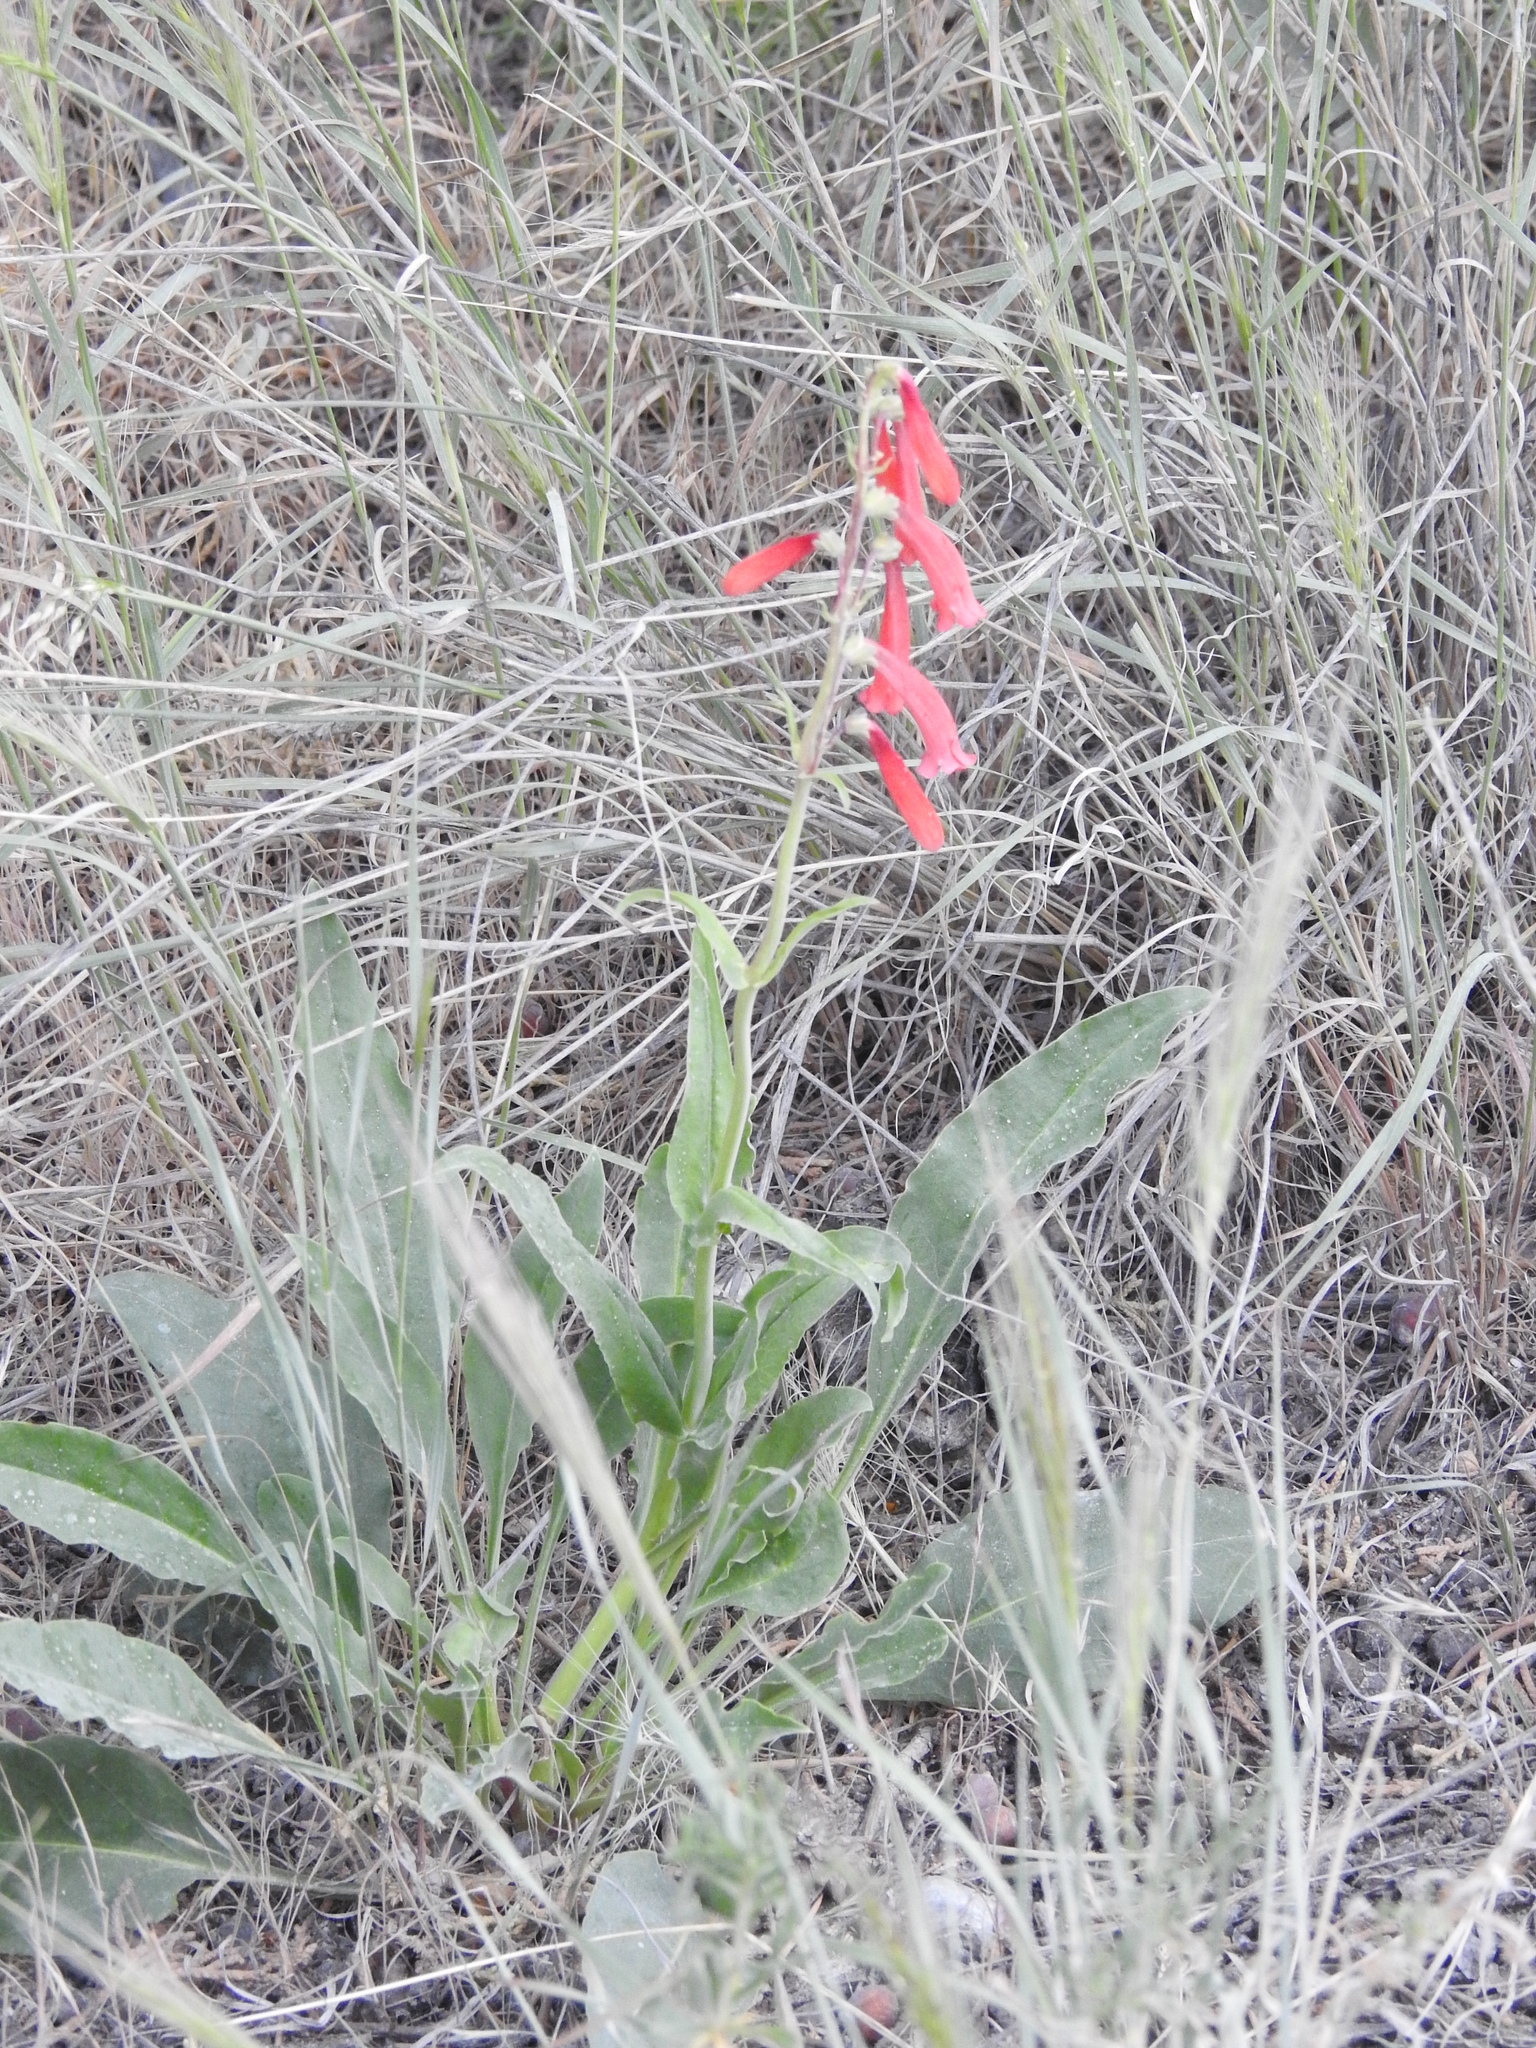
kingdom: Plantae
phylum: Tracheophyta
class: Magnoliopsida
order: Lamiales
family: Plantaginaceae
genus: Penstemon
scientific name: Penstemon eatonii
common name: Eaton's penstemon
